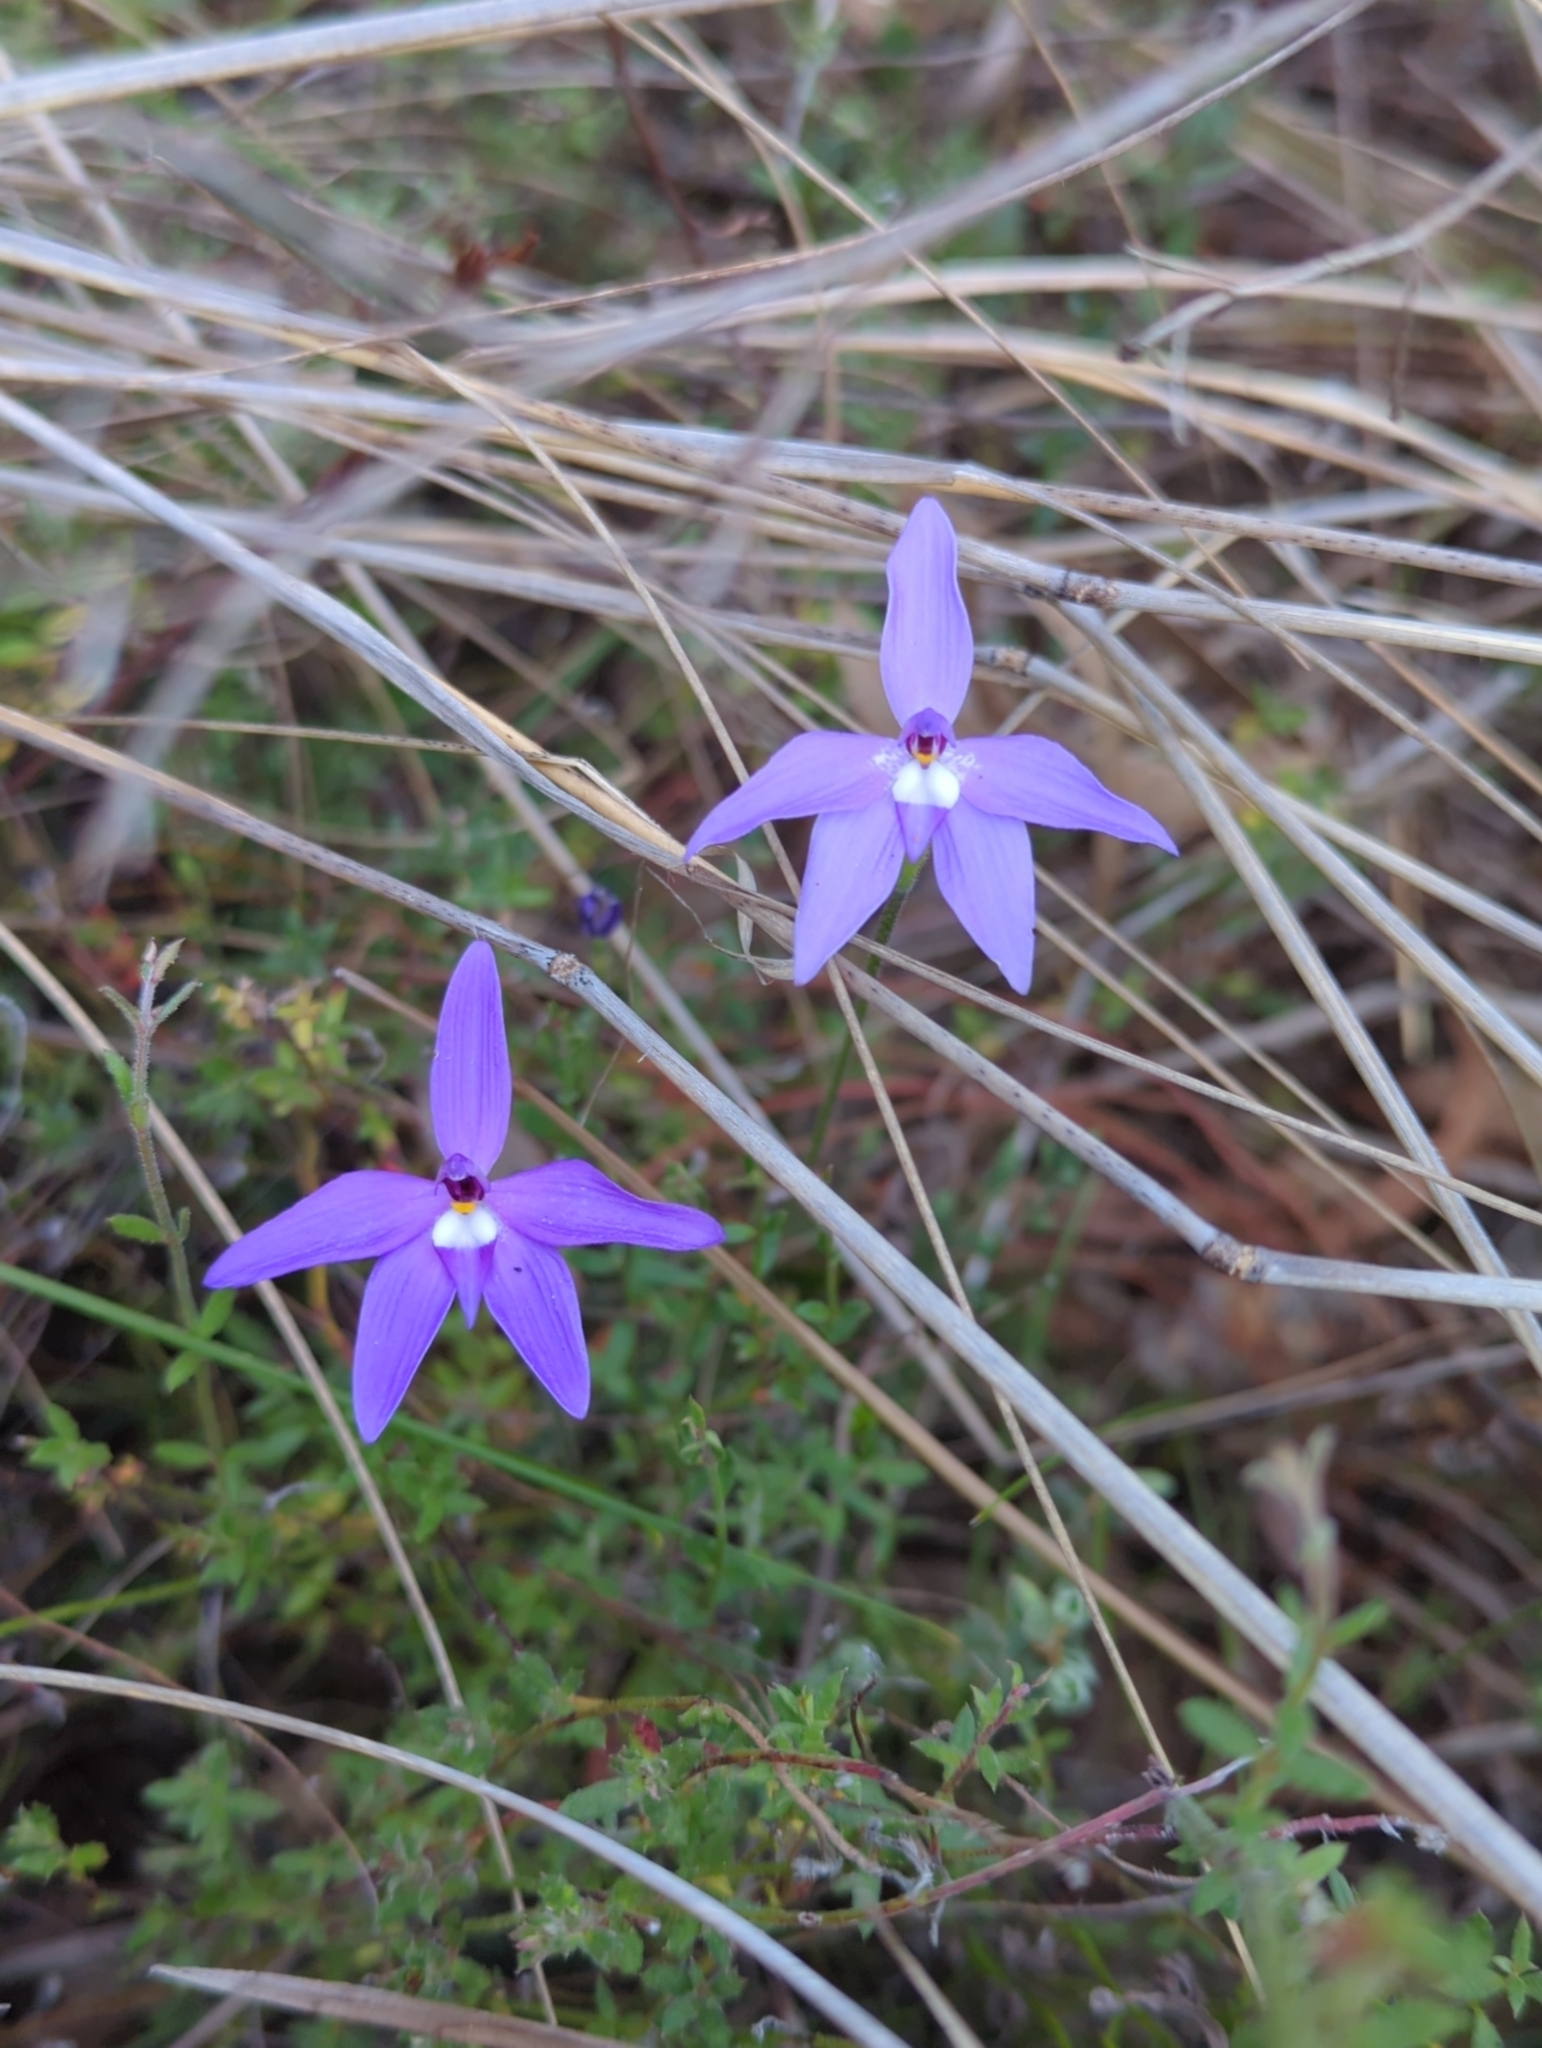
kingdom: Plantae
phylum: Tracheophyta
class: Liliopsida
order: Asparagales
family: Orchidaceae
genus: Caladenia
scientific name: Caladenia major
